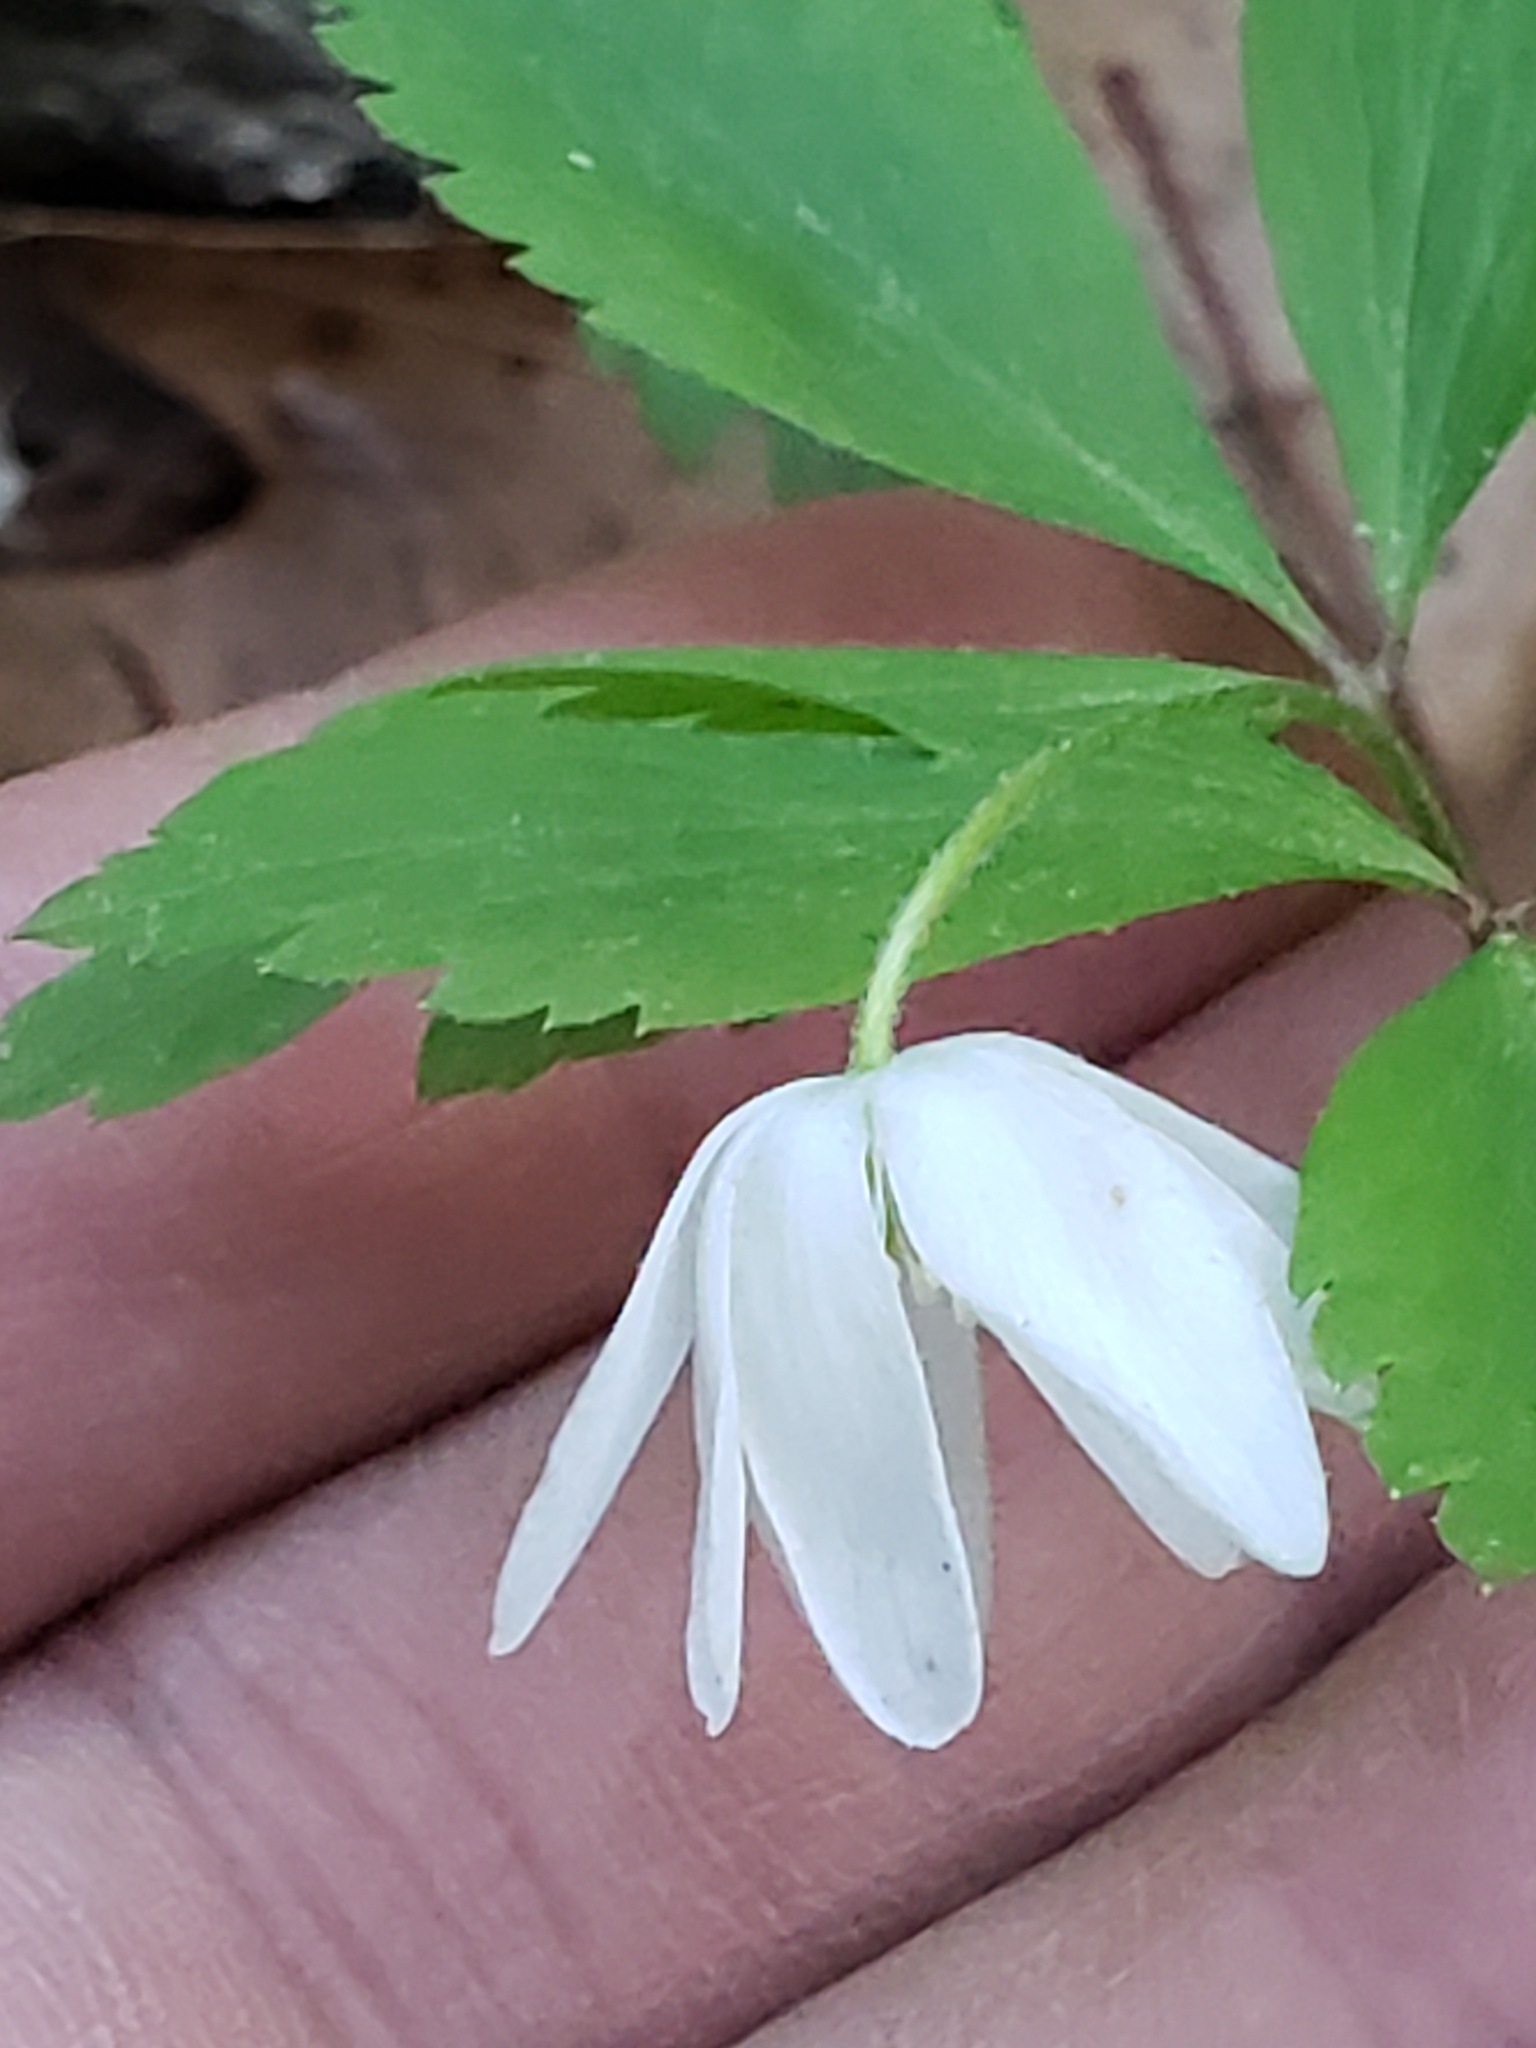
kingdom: Plantae
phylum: Tracheophyta
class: Magnoliopsida
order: Ranunculales
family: Ranunculaceae
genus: Anemone
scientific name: Anemone quinquefolia
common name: Wood anemone
